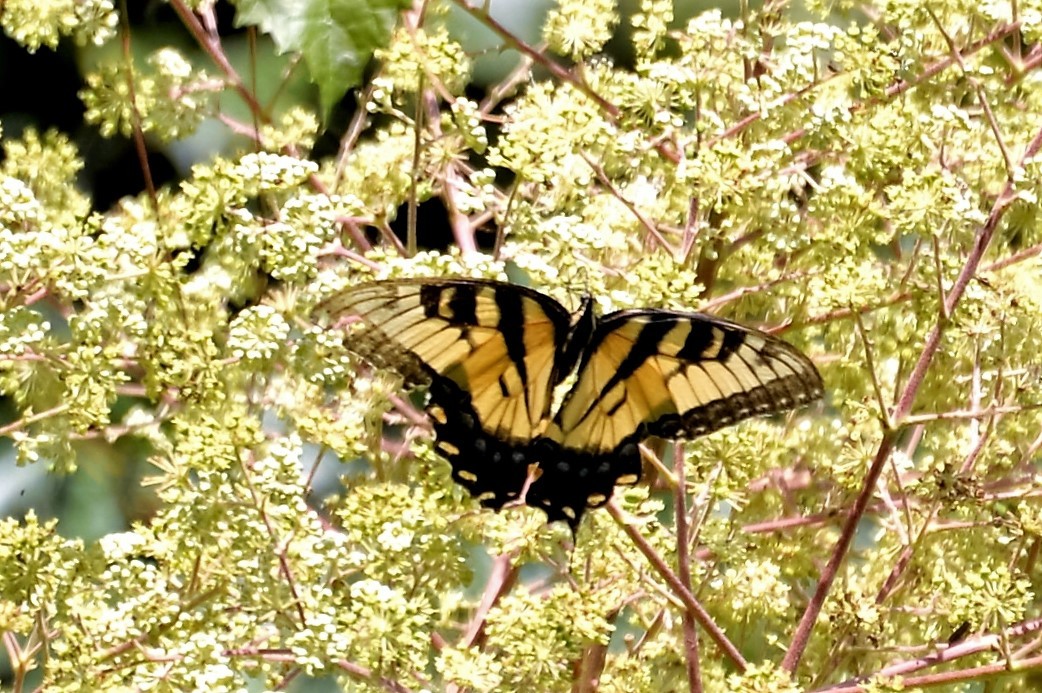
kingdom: Animalia
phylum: Arthropoda
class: Insecta
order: Lepidoptera
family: Papilionidae
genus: Papilio
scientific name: Papilio glaucus
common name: Tiger swallowtail
